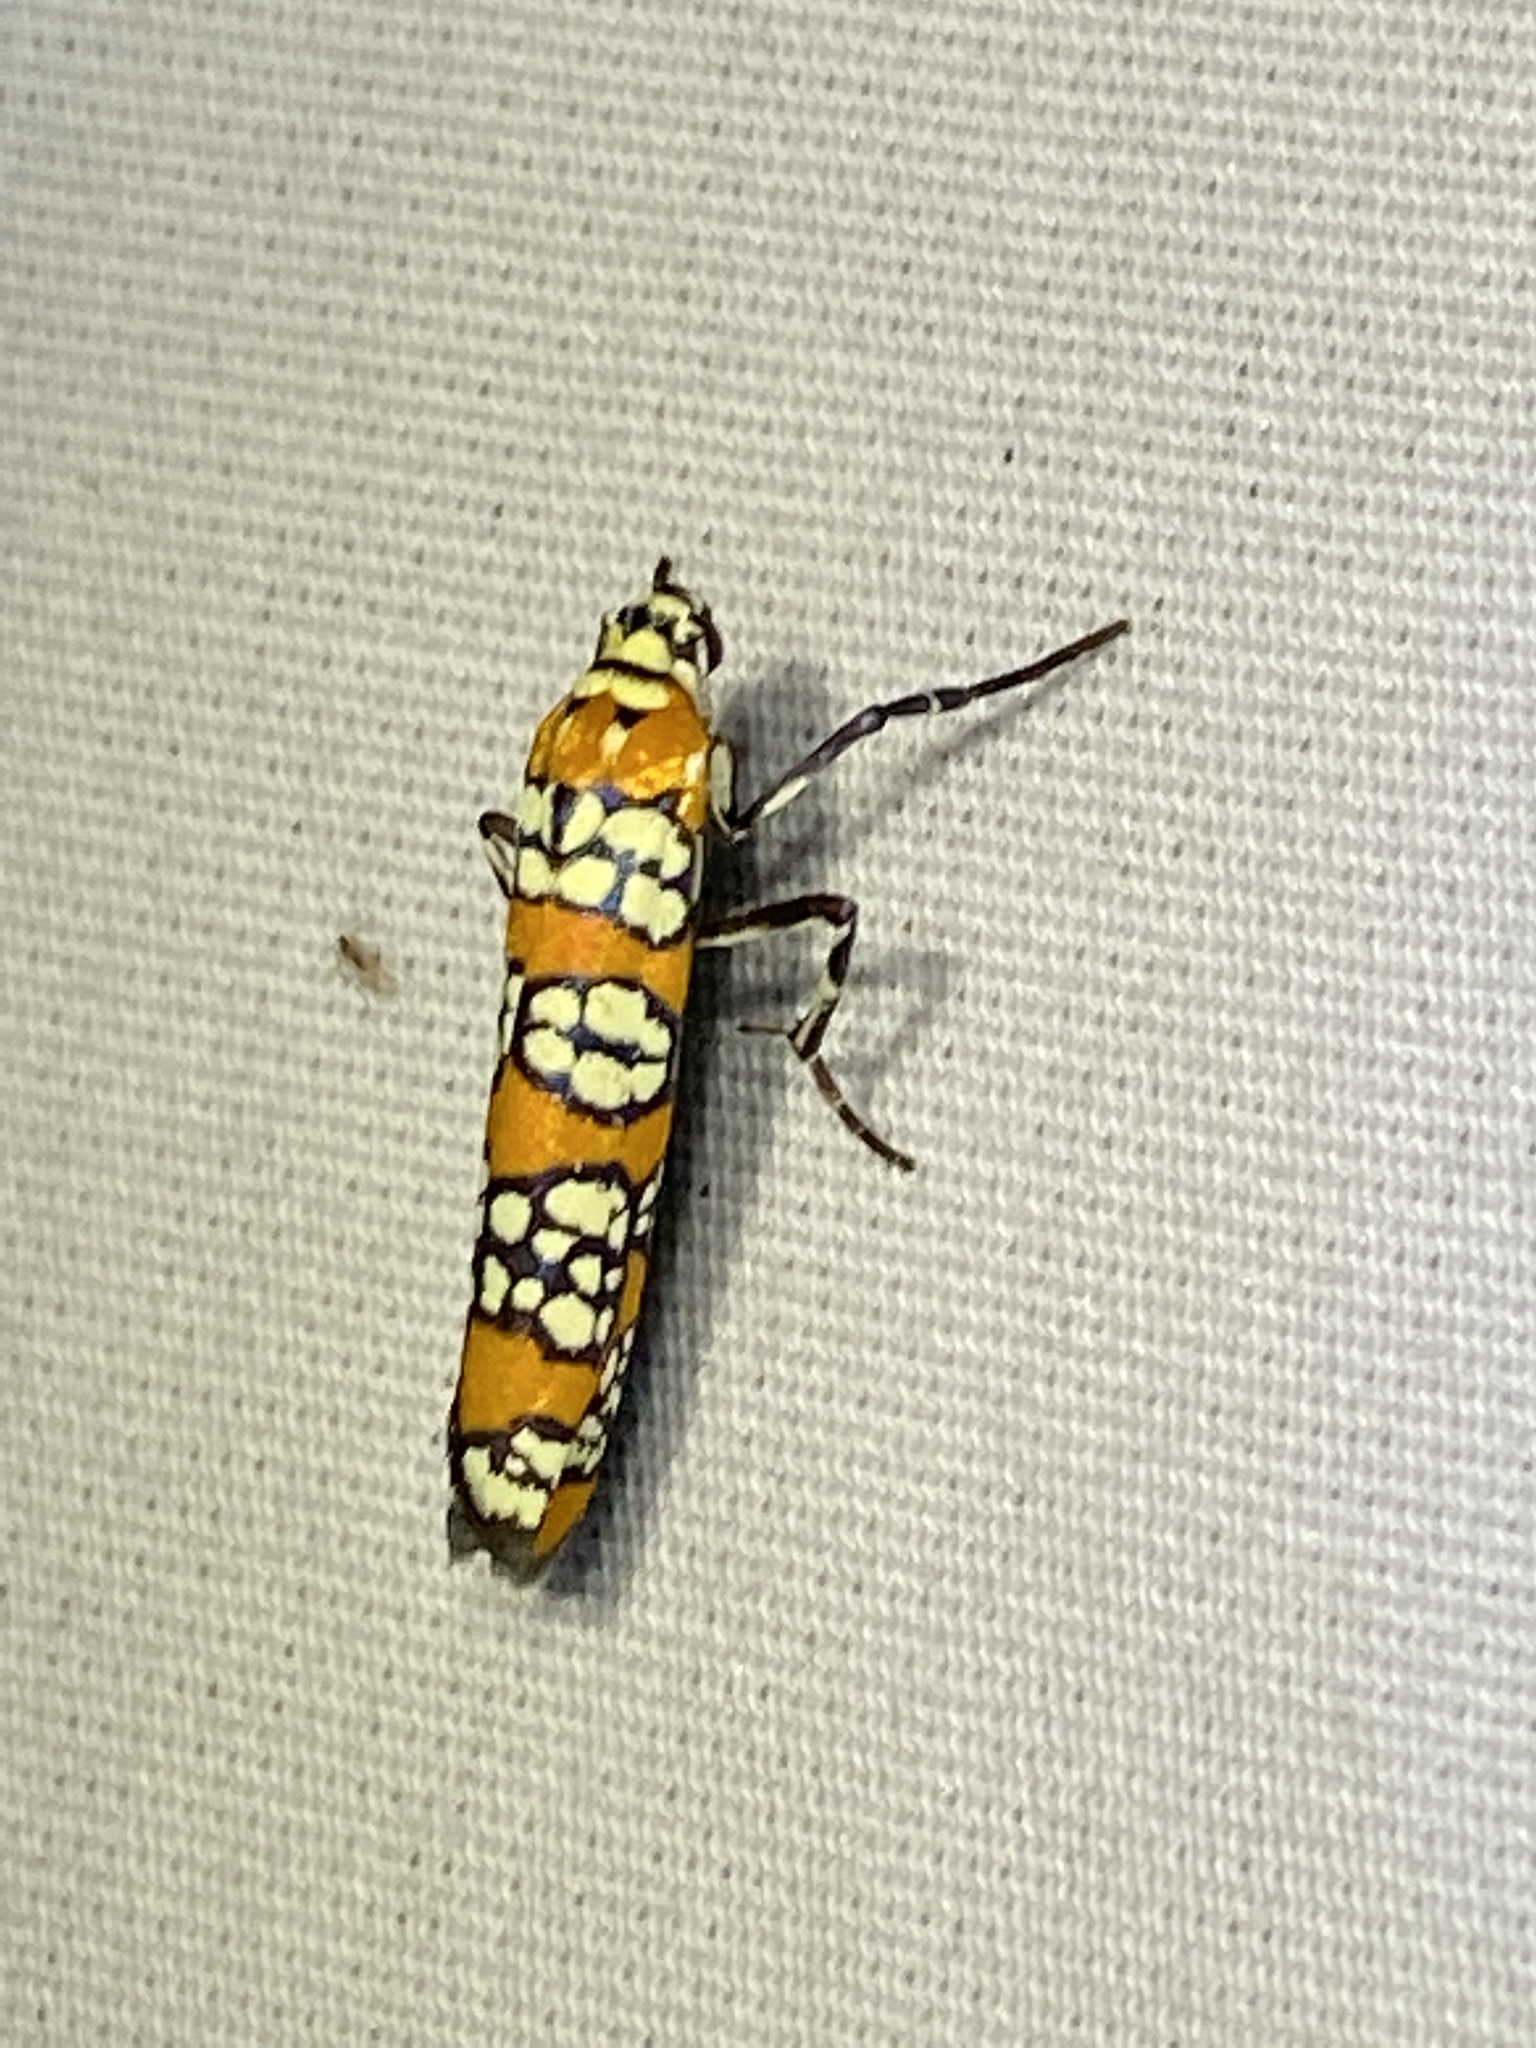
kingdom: Animalia
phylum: Arthropoda
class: Insecta
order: Lepidoptera
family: Attevidae
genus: Atteva
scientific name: Atteva punctella
